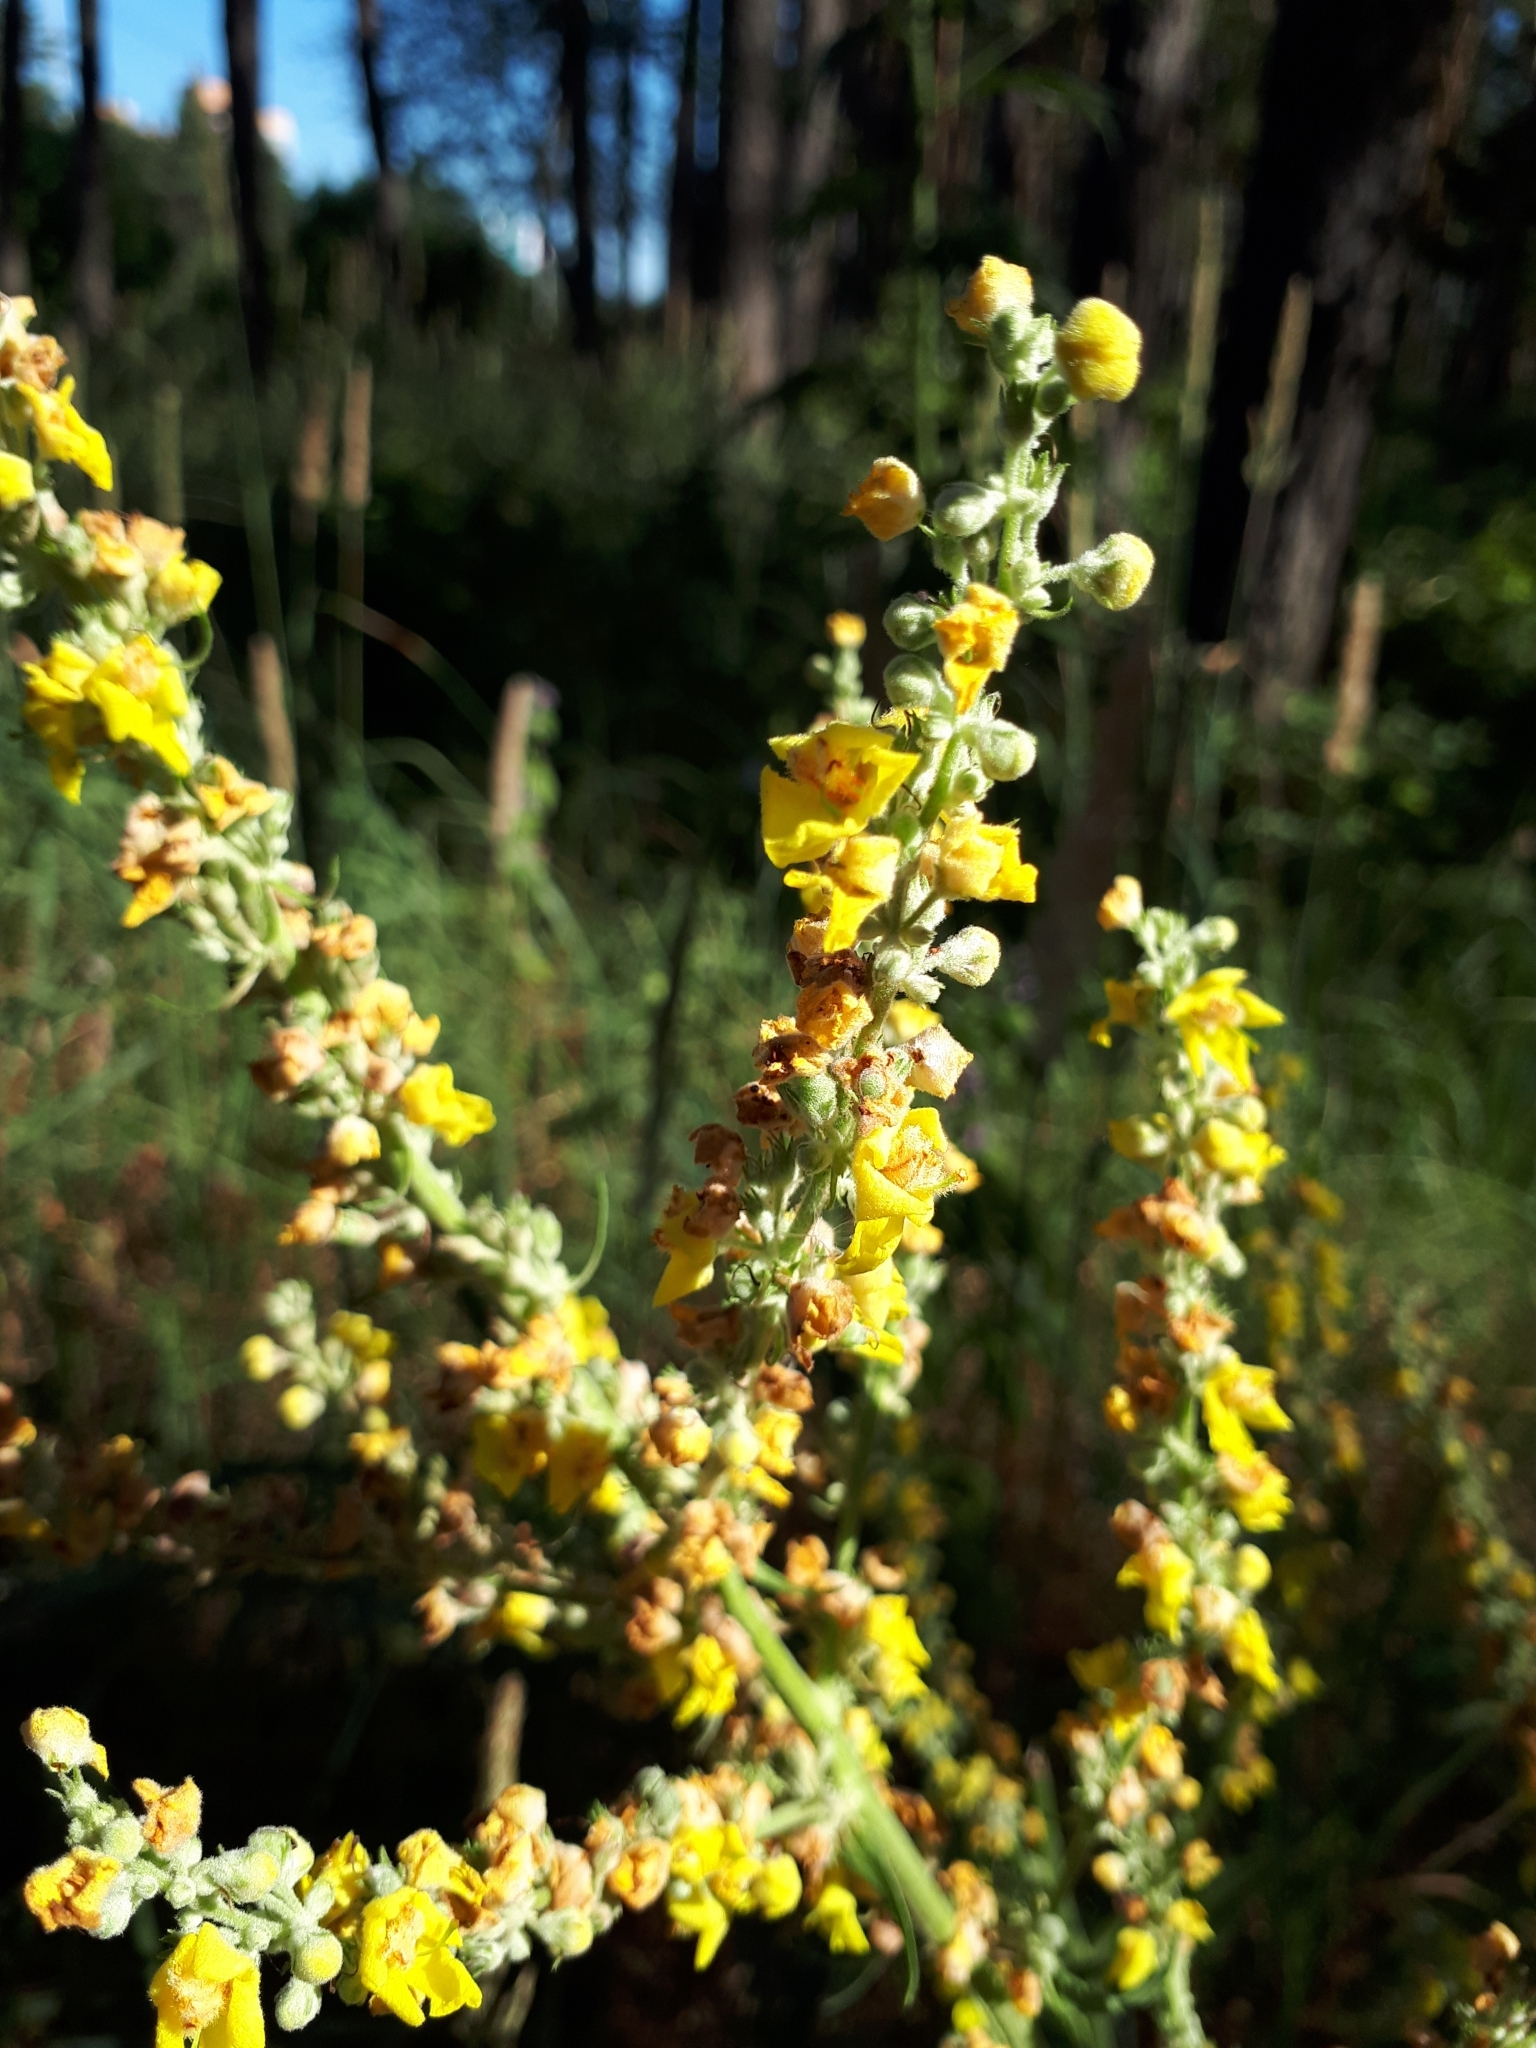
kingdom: Plantae
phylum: Tracheophyta
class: Magnoliopsida
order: Lamiales
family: Scrophulariaceae
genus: Verbascum
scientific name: Verbascum lychnitis
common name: White mullein
